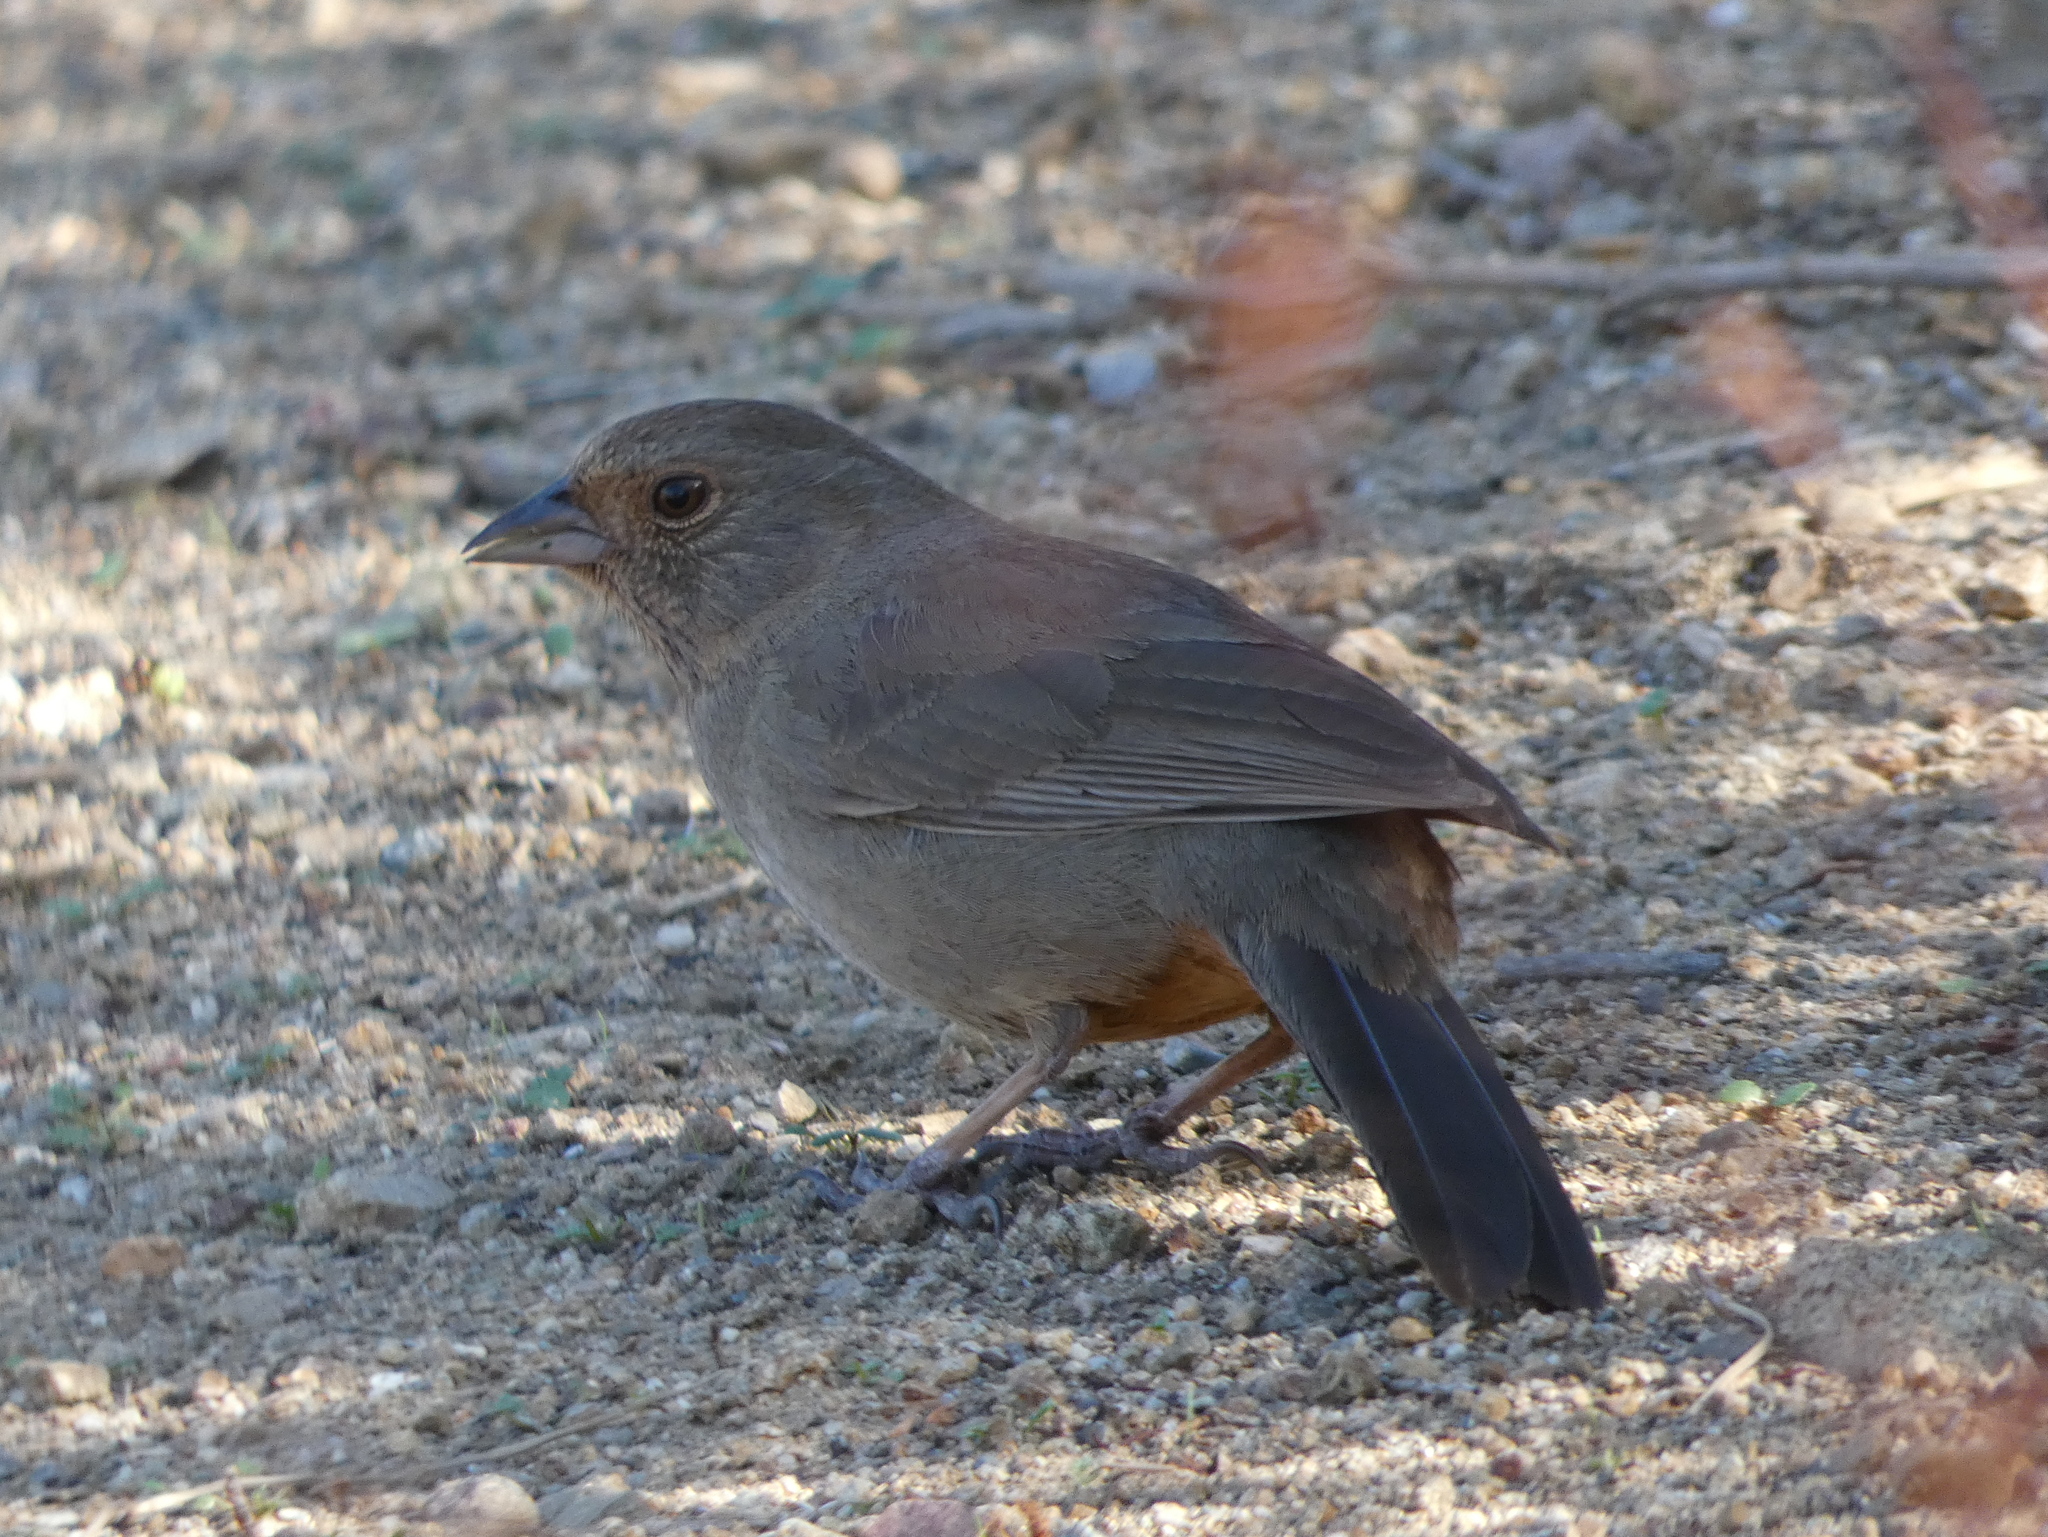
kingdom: Animalia
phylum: Chordata
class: Aves
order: Passeriformes
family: Passerellidae
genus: Melozone
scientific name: Melozone crissalis
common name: California towhee
